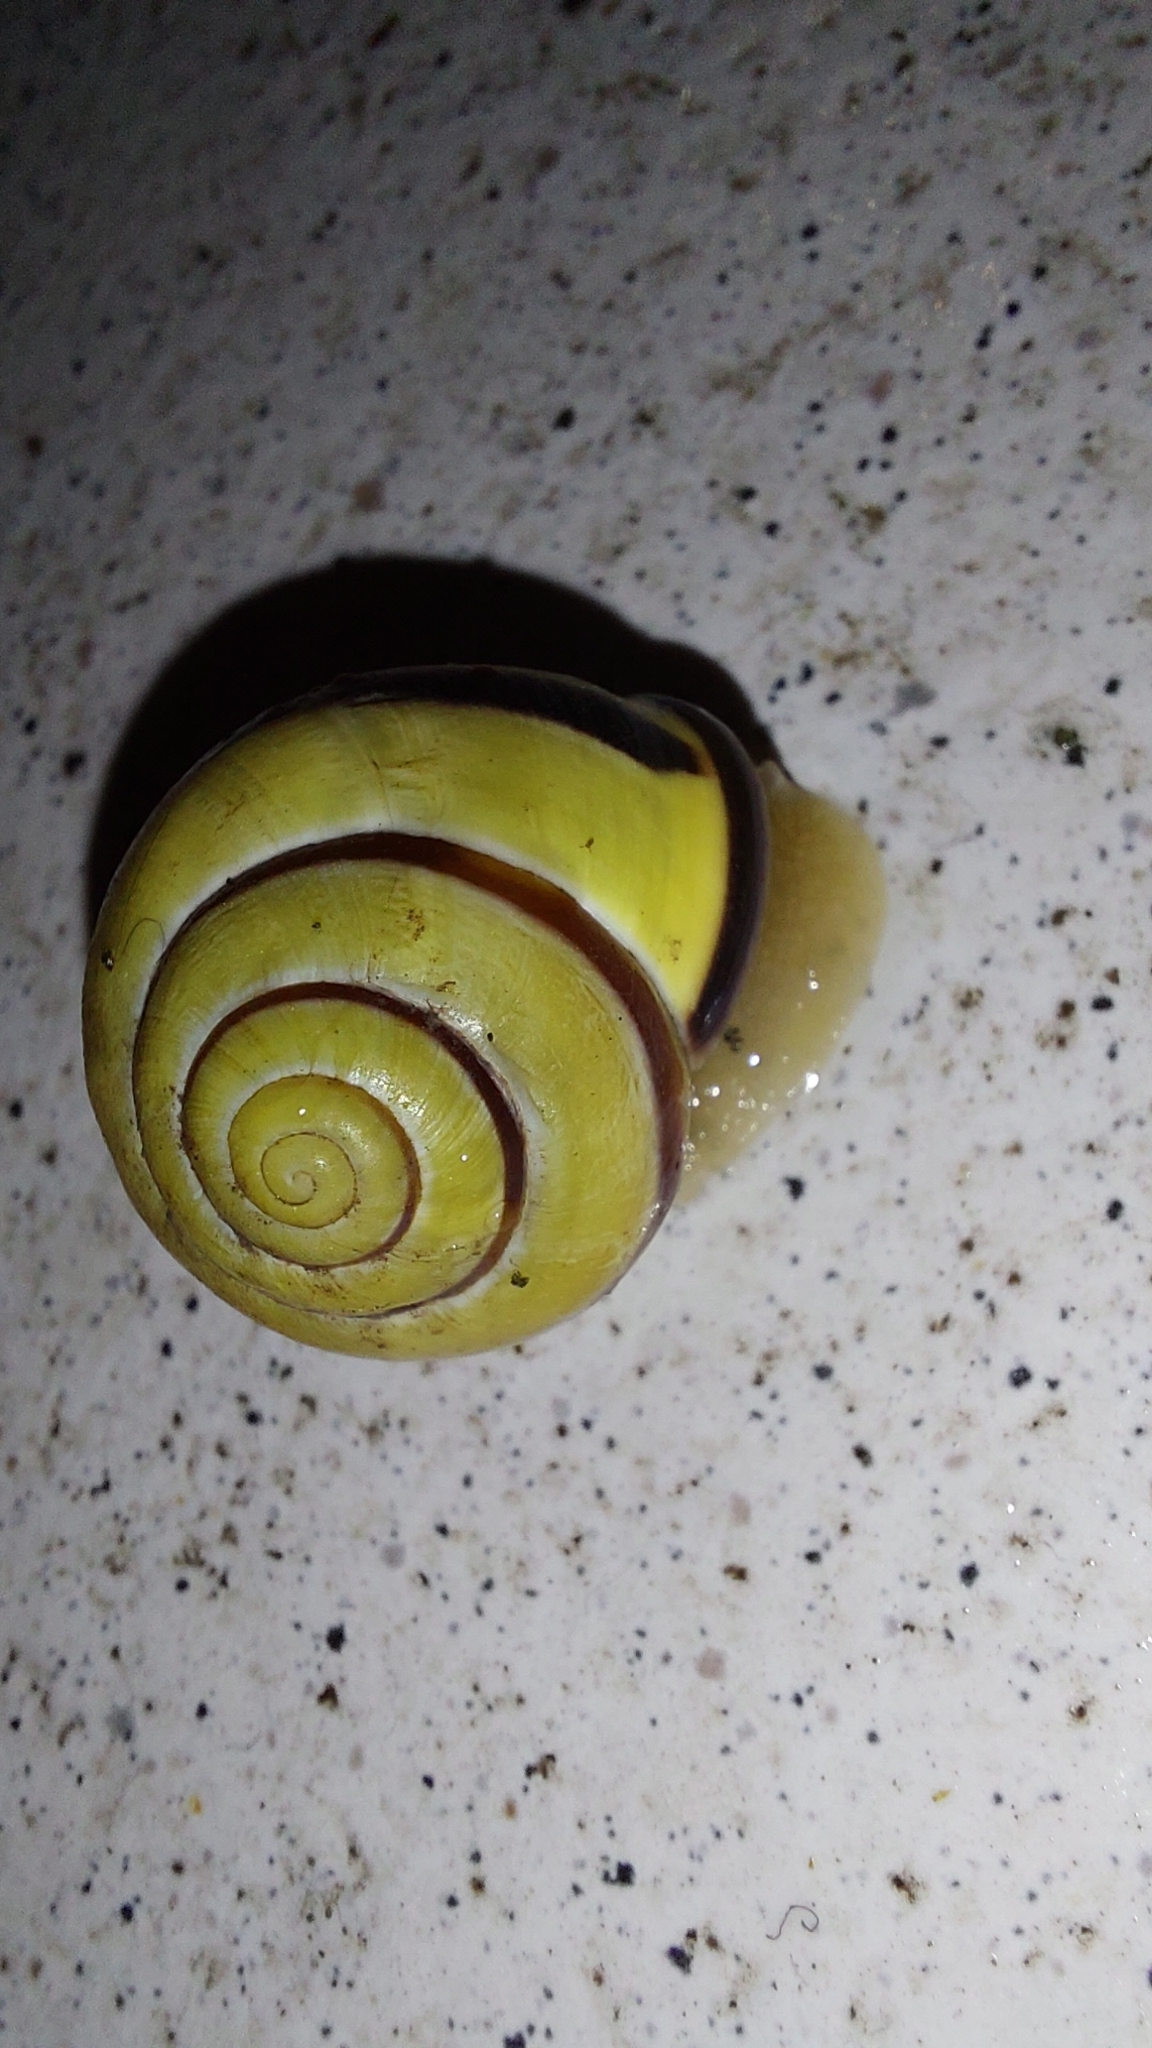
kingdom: Animalia
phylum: Mollusca
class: Gastropoda
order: Stylommatophora
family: Helicidae
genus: Cepaea
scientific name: Cepaea nemoralis
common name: Grovesnail
